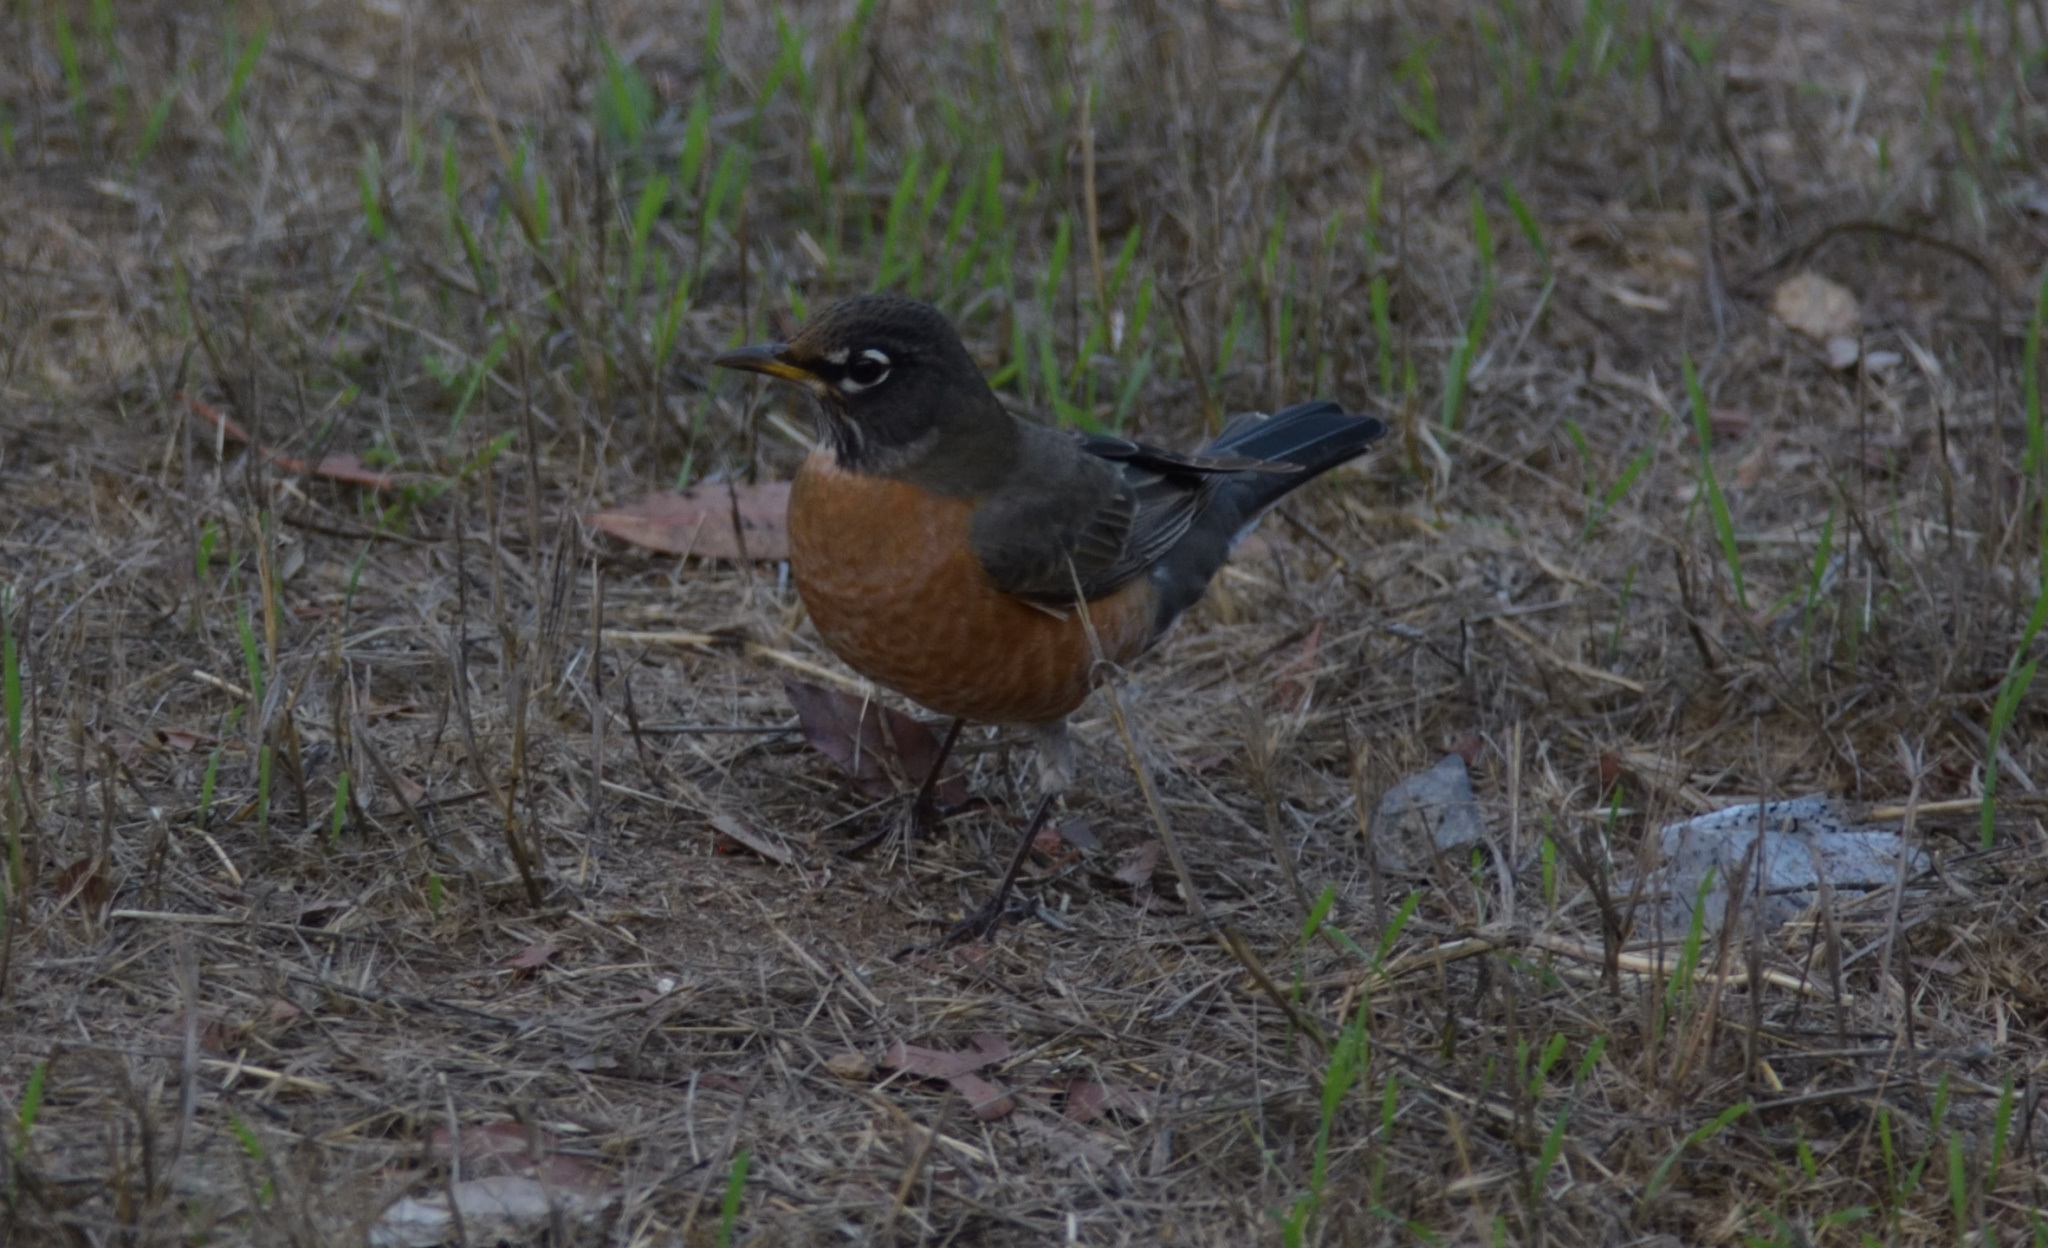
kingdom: Animalia
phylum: Chordata
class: Aves
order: Passeriformes
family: Turdidae
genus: Turdus
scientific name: Turdus migratorius
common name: American robin
